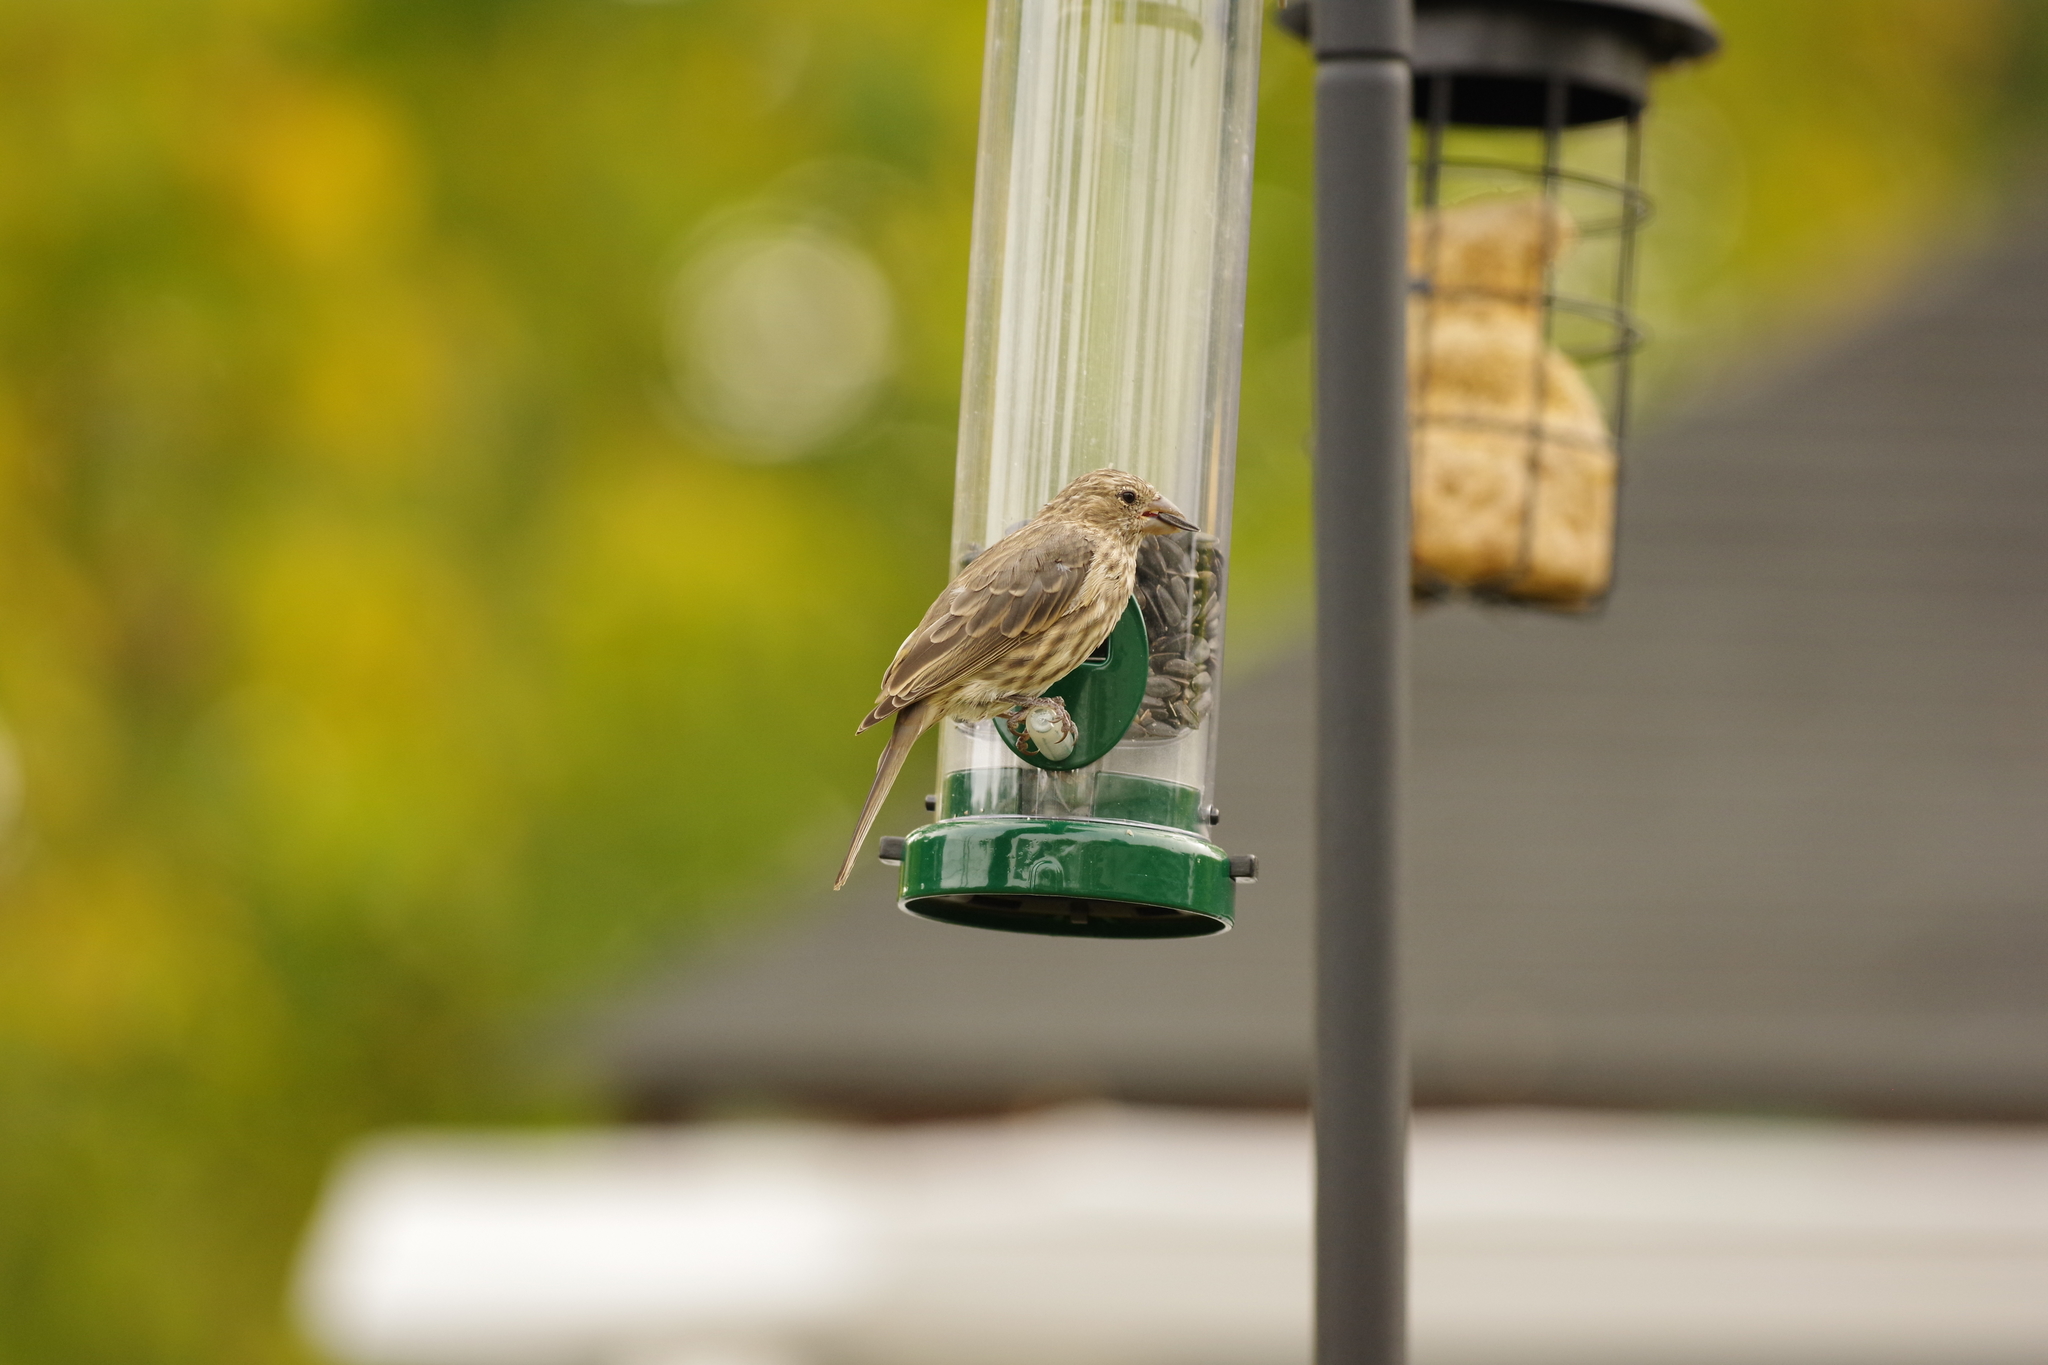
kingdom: Animalia
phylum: Chordata
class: Aves
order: Passeriformes
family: Fringillidae
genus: Haemorhous
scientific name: Haemorhous mexicanus
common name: House finch
